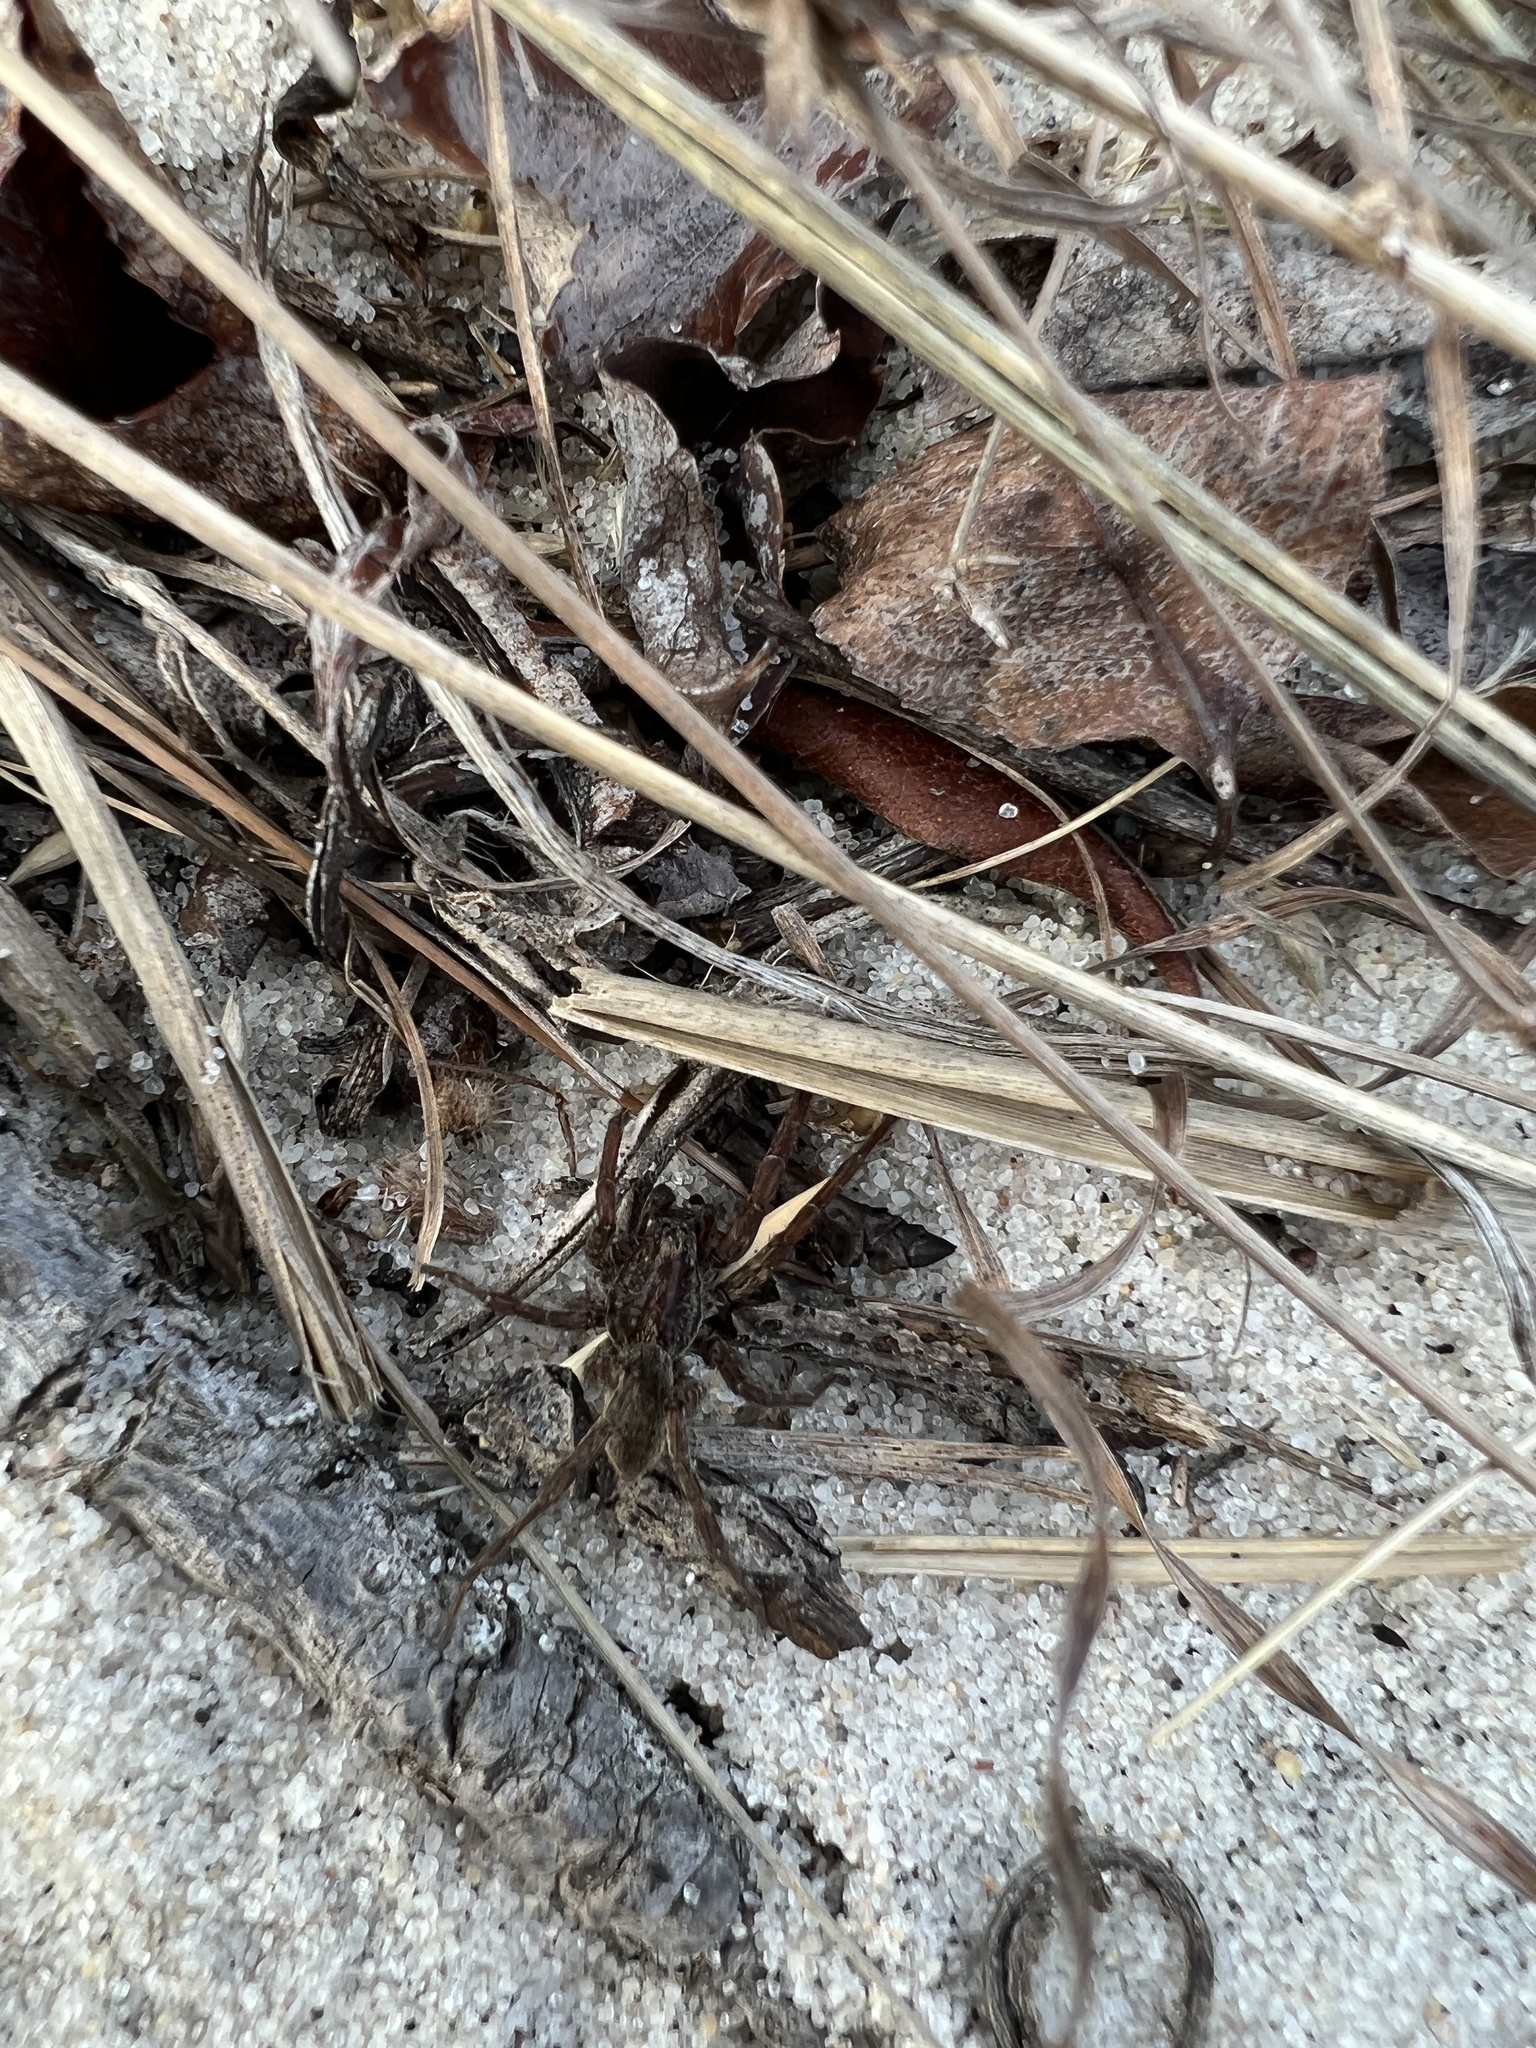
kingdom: Animalia
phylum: Arthropoda
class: Arachnida
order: Araneae
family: Lycosidae
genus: Varacosa
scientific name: Varacosa avara
